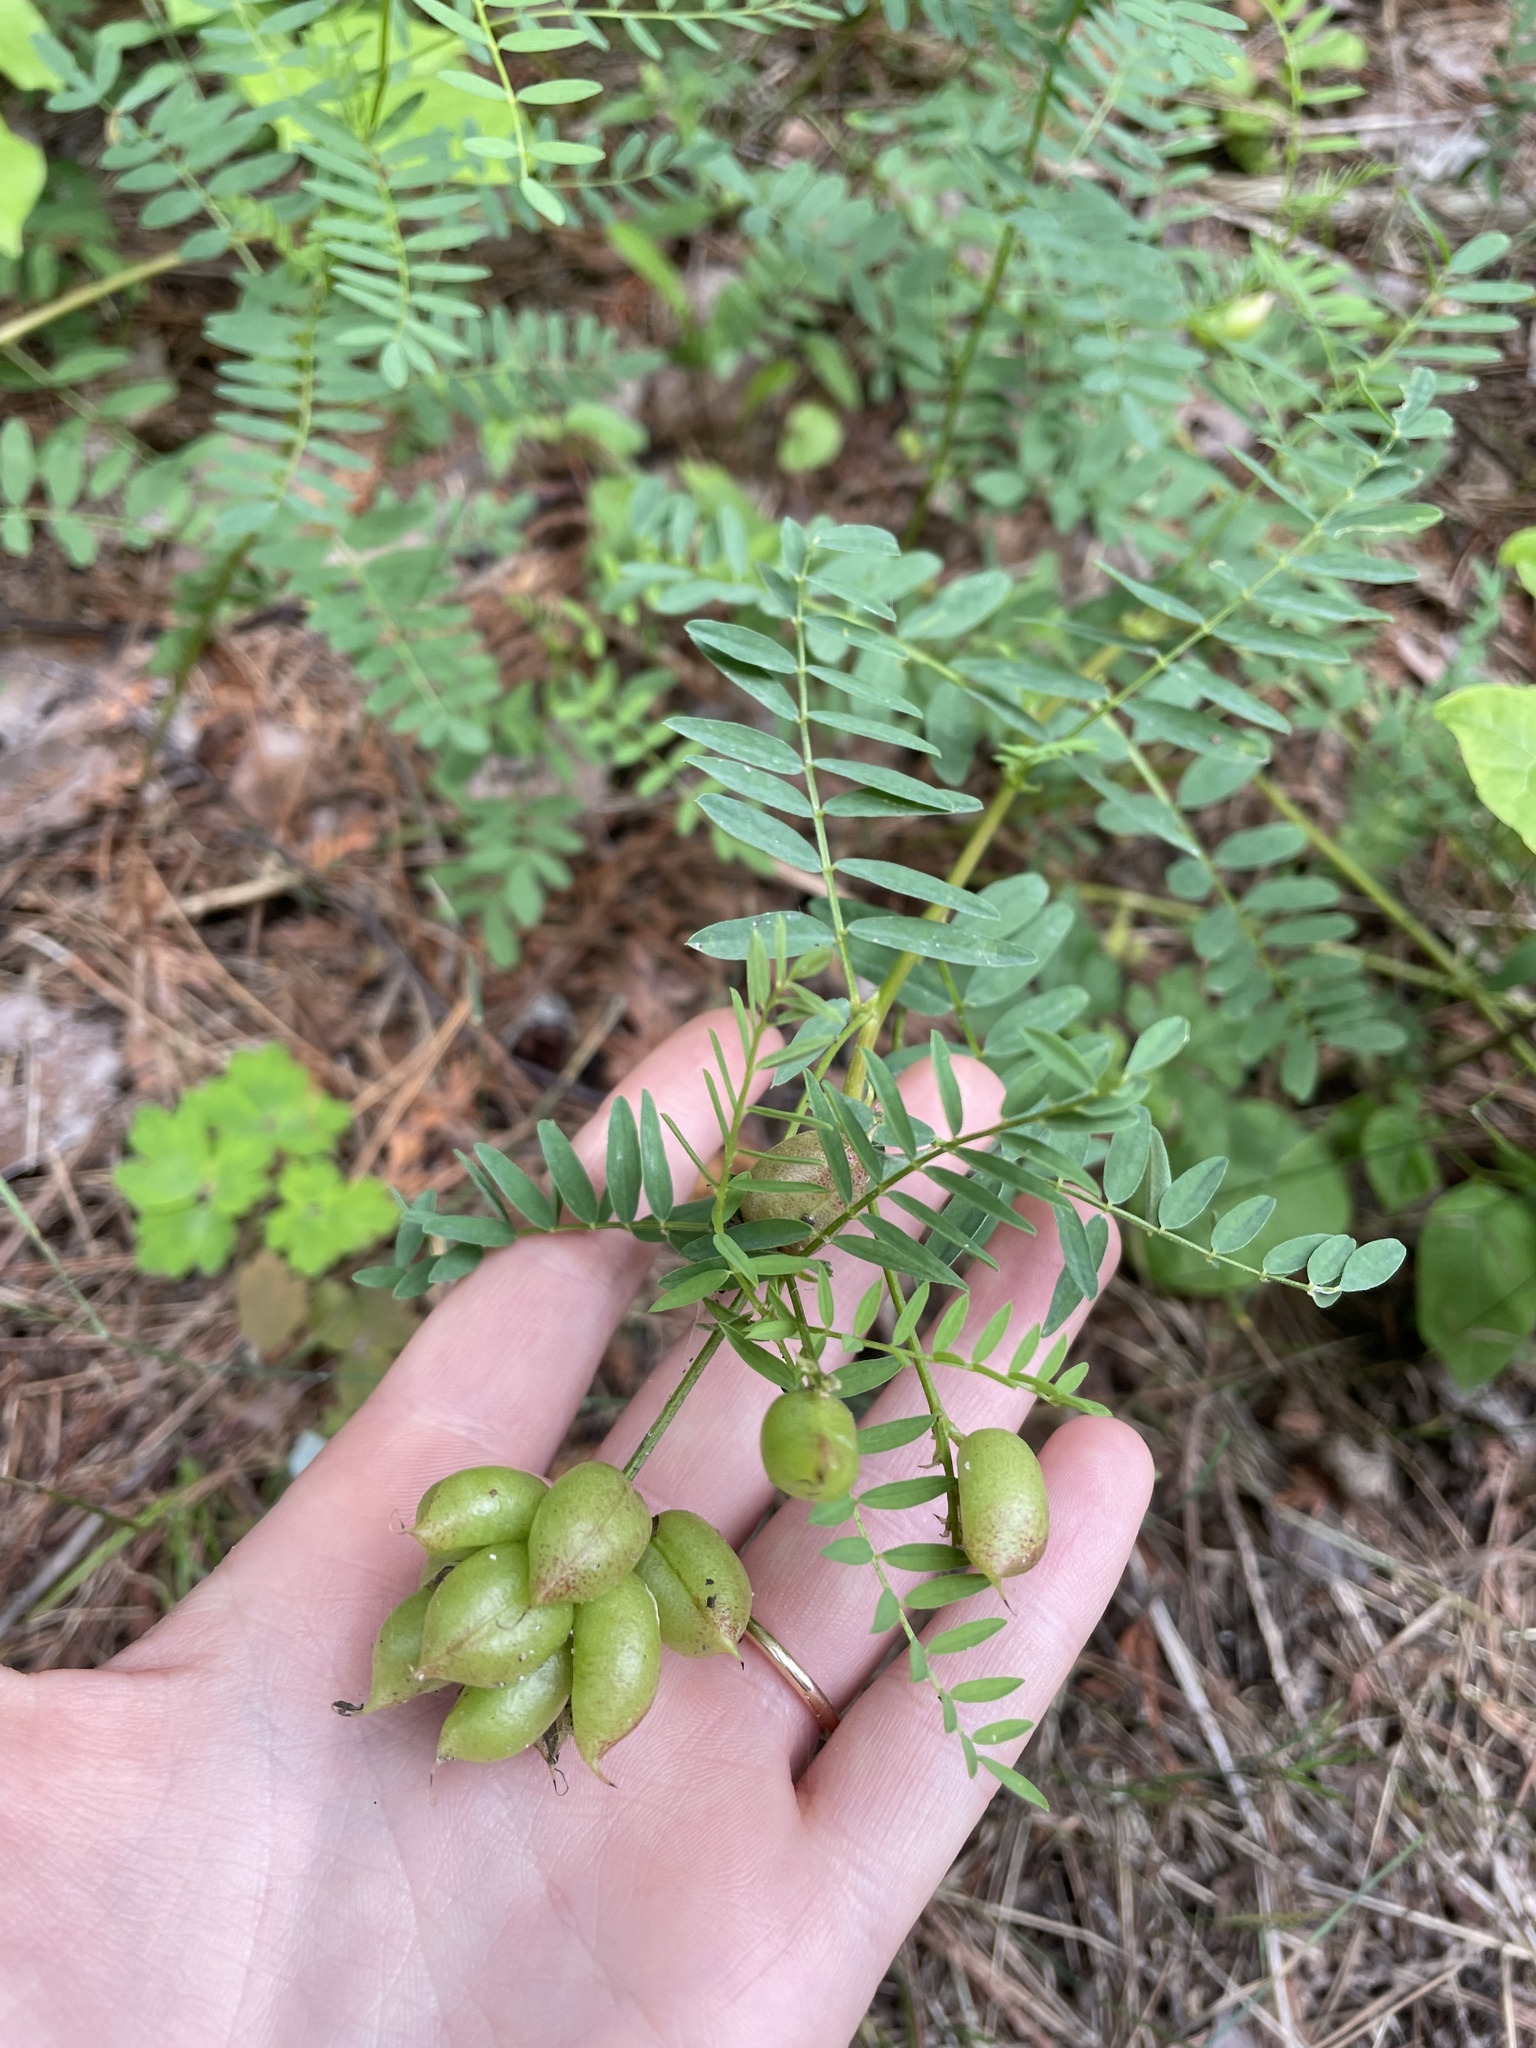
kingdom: Plantae
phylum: Tracheophyta
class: Magnoliopsida
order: Fabales
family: Fabaceae
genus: Astragalus
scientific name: Astragalus canadensis
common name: Canada milk-vetch
